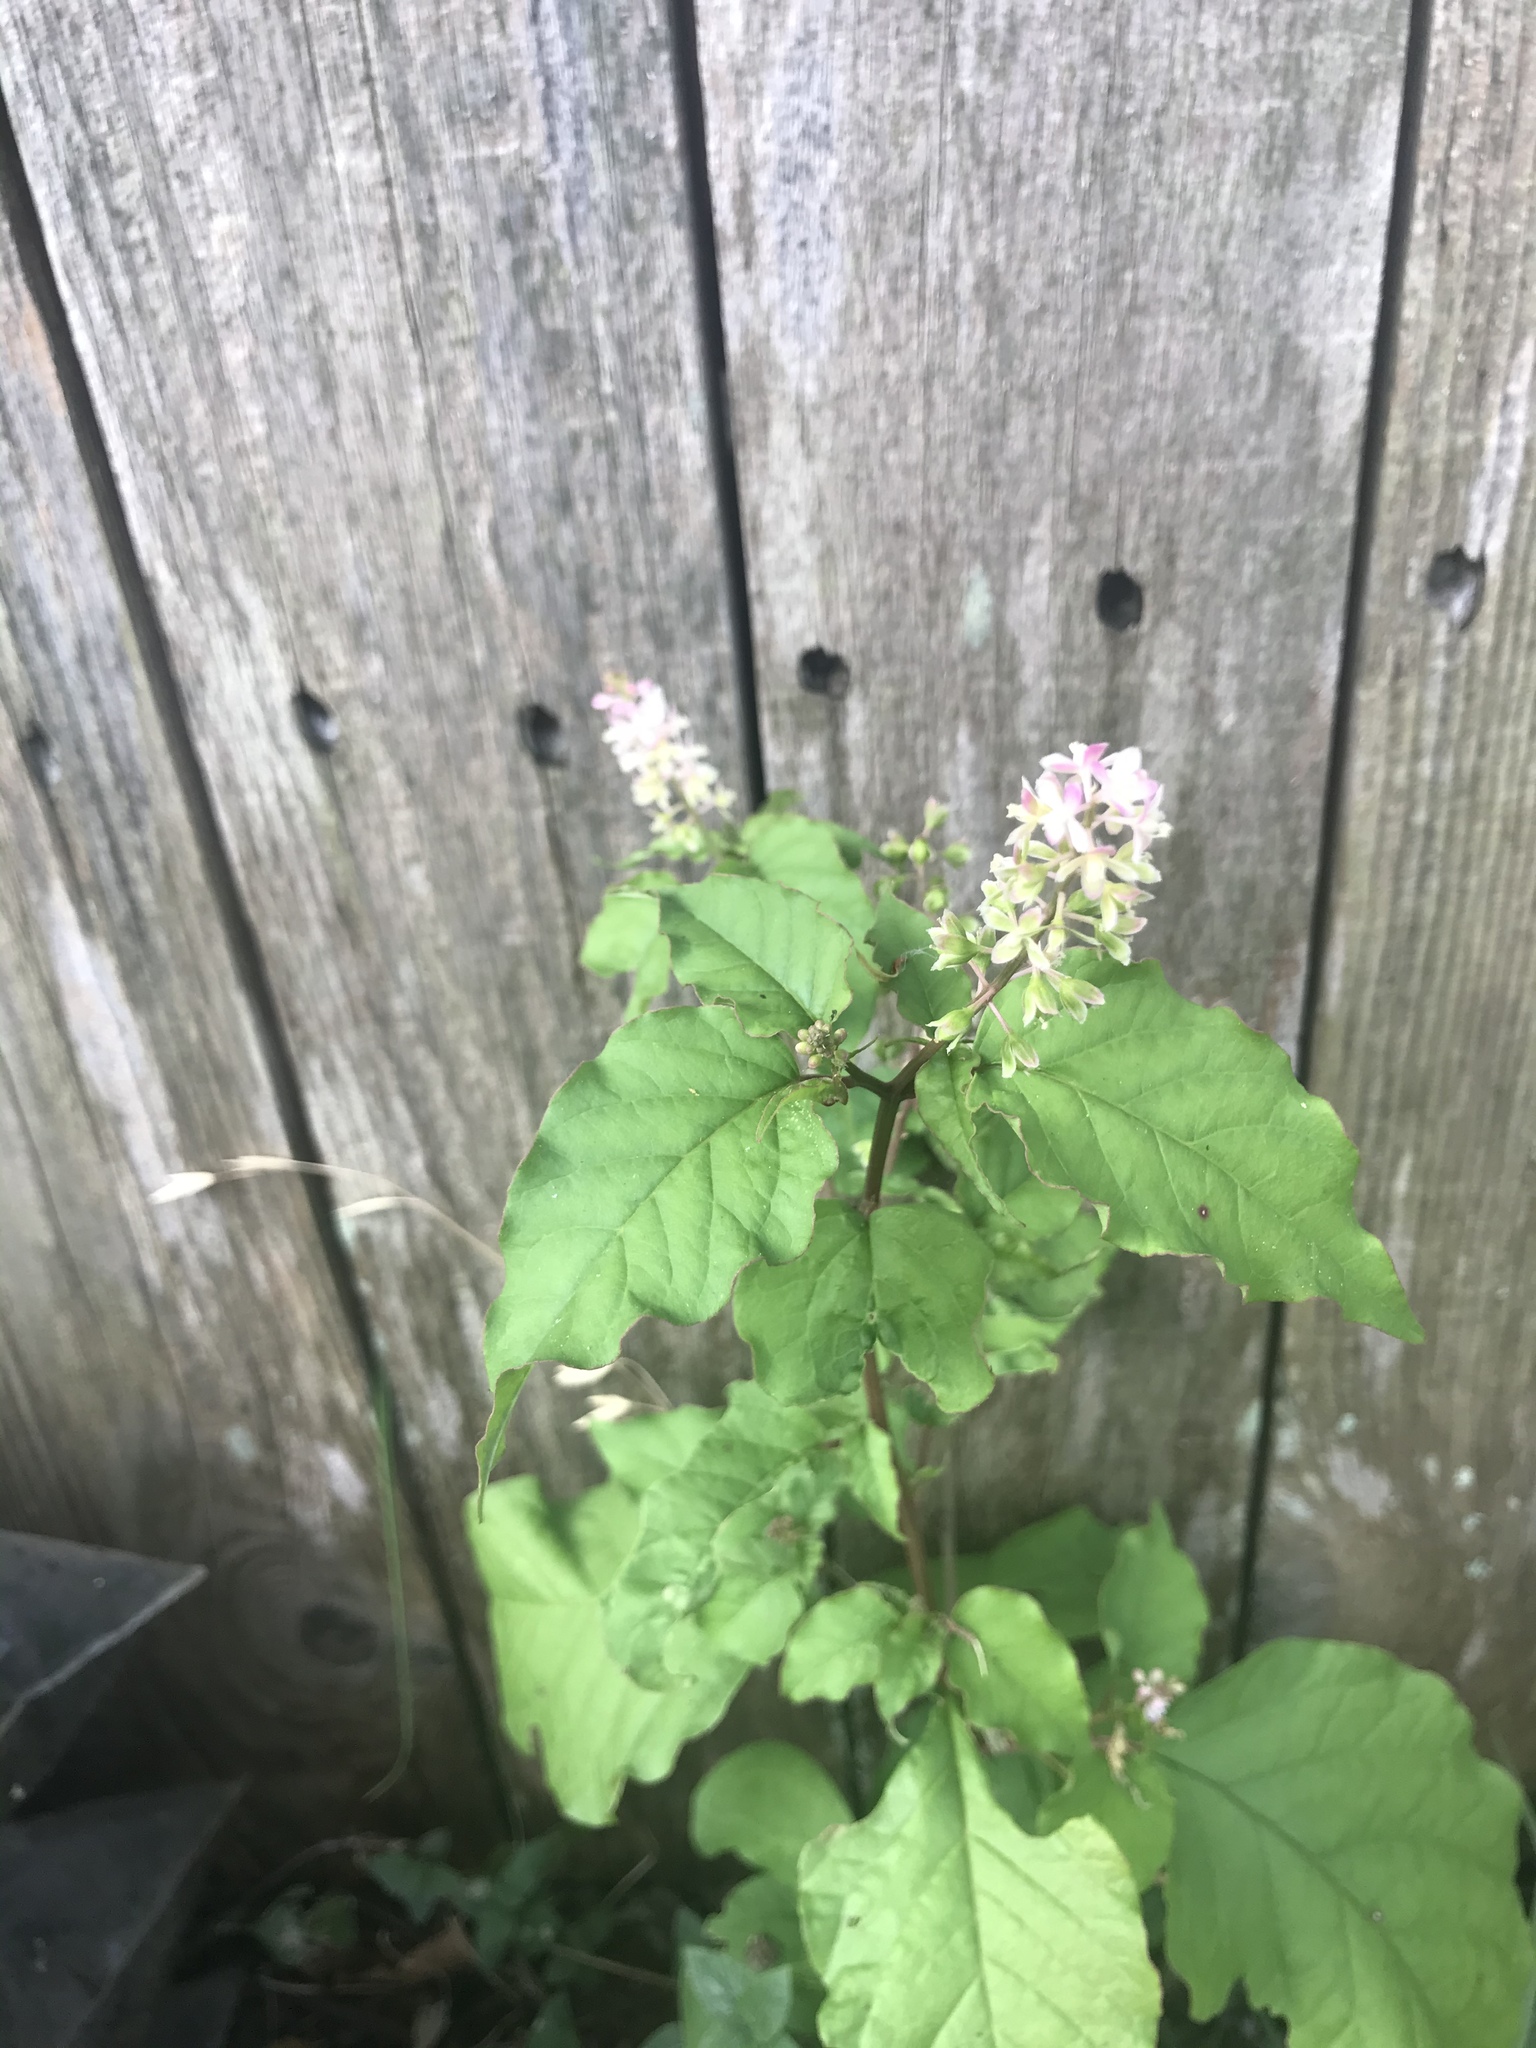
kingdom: Plantae
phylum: Tracheophyta
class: Magnoliopsida
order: Caryophyllales
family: Phytolaccaceae
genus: Rivina
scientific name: Rivina humilis
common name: Rougeplant
